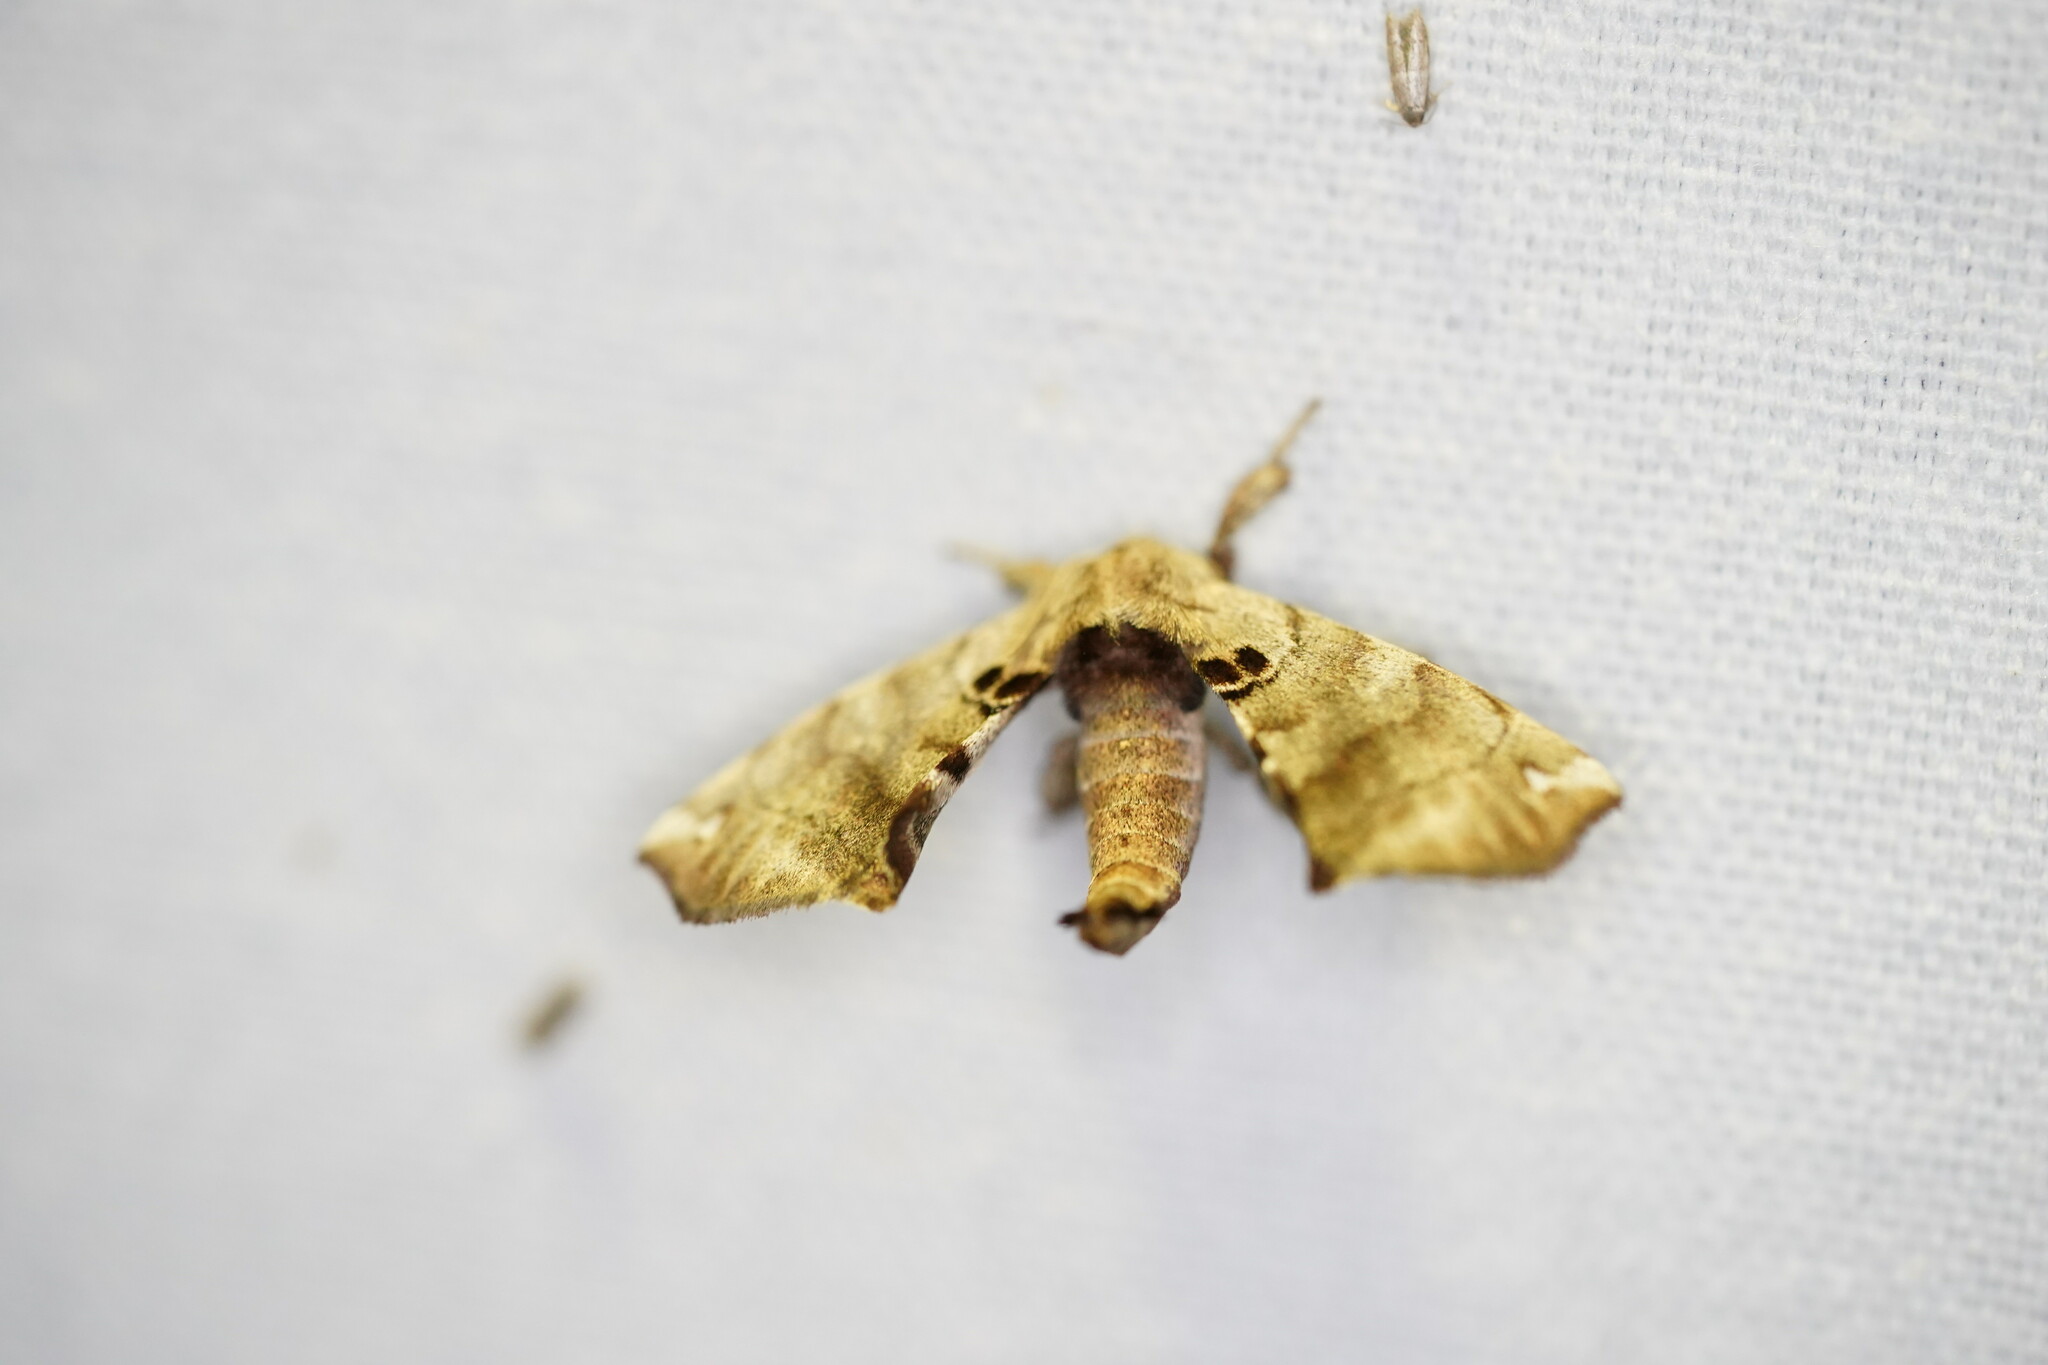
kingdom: Animalia
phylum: Arthropoda
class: Insecta
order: Lepidoptera
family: Apatelodidae
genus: Hygrochroa
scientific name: Hygrochroa Apatelodes torrefacta
